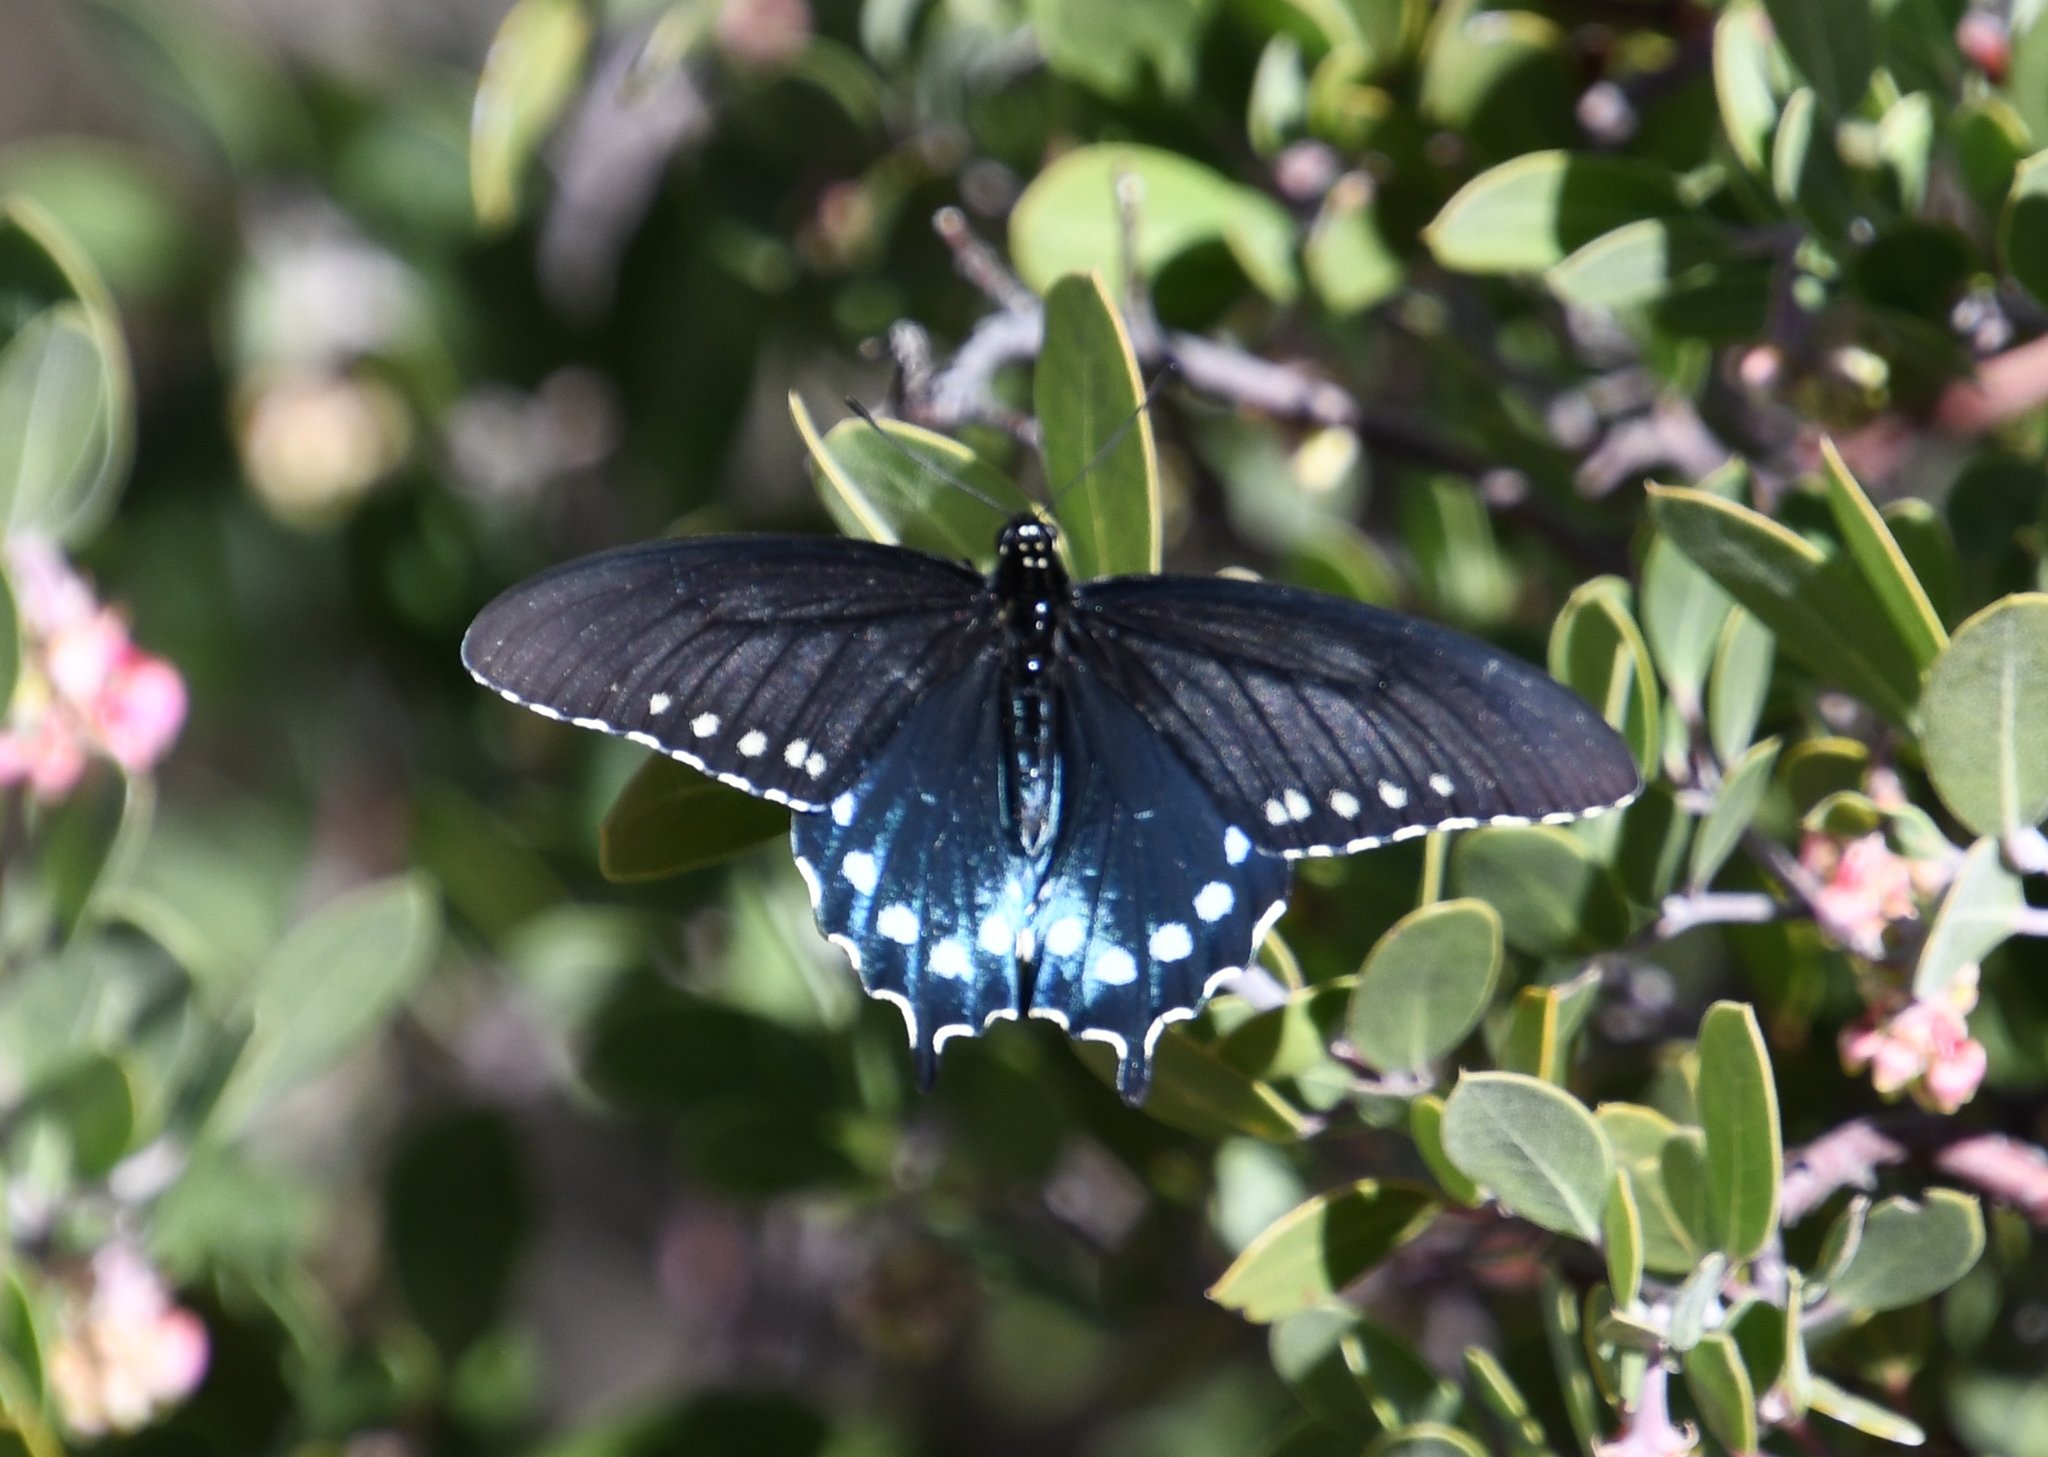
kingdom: Animalia
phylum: Arthropoda
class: Insecta
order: Lepidoptera
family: Papilionidae
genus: Battus
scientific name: Battus philenor
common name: Pipevine swallowtail
